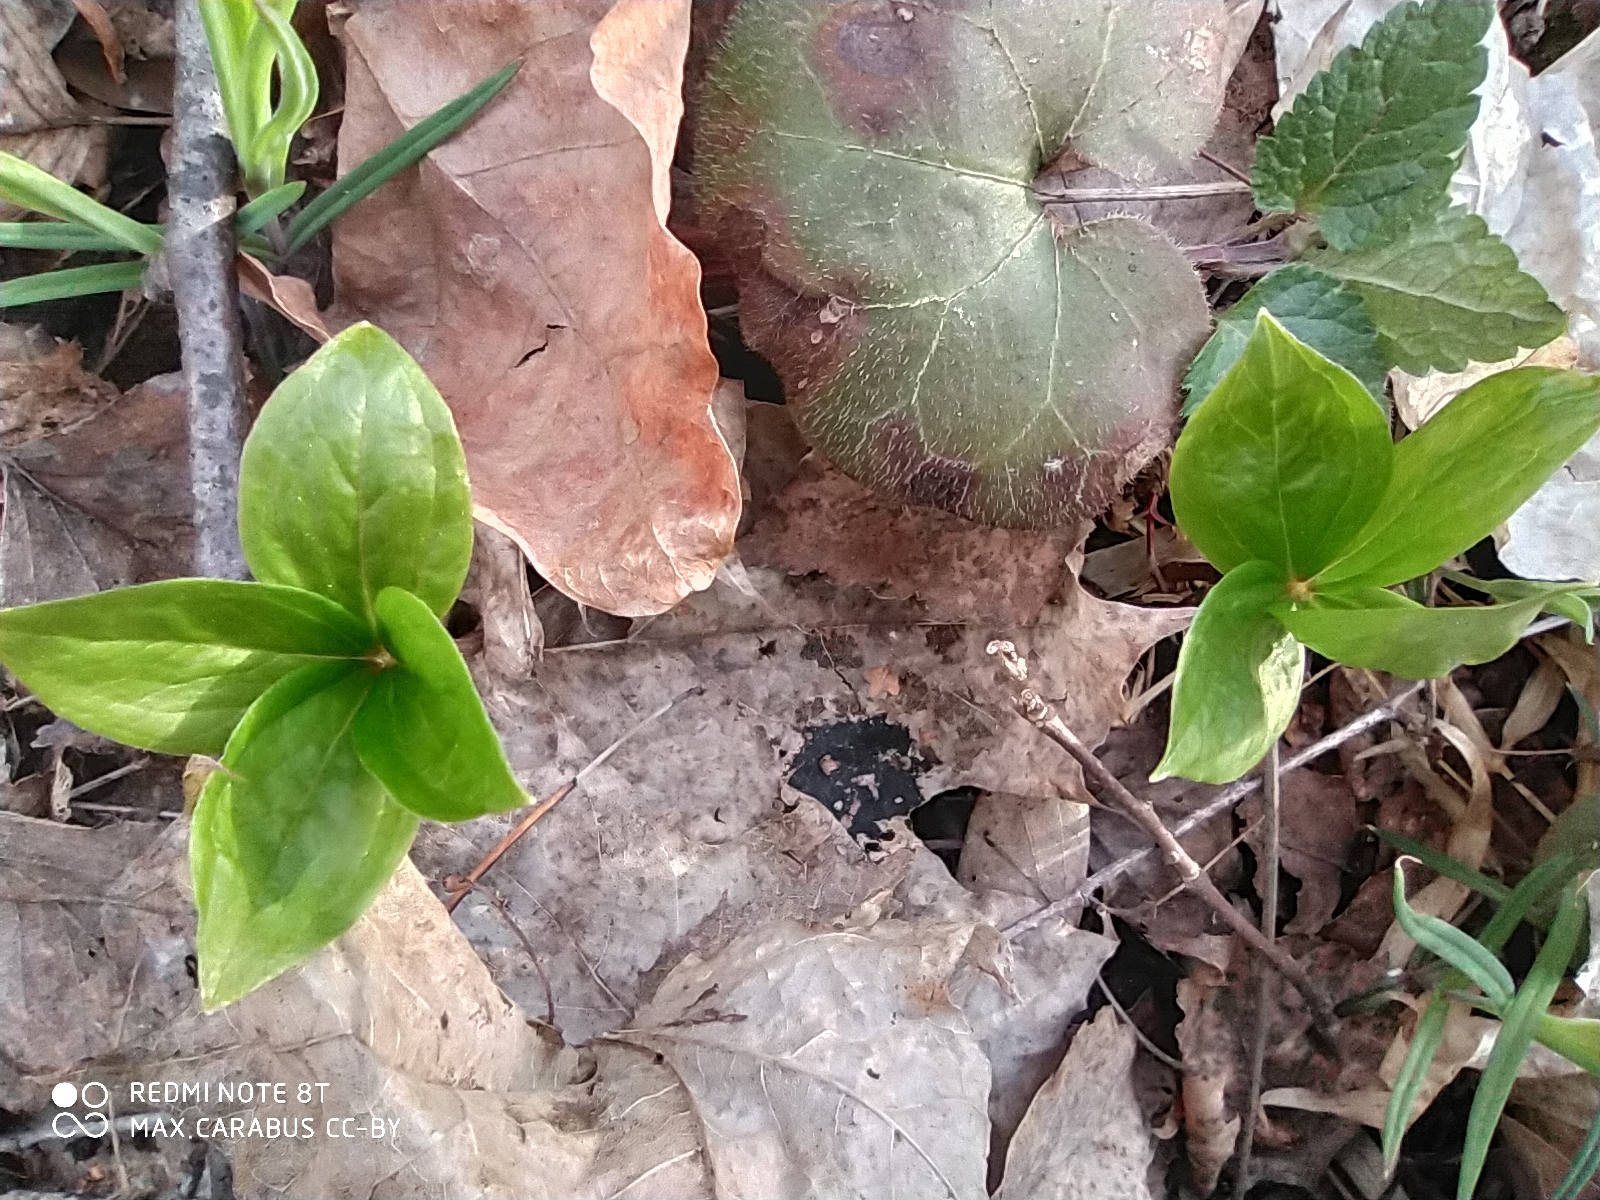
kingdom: Plantae
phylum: Tracheophyta
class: Liliopsida
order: Liliales
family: Melanthiaceae
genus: Paris
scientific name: Paris quadrifolia
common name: Herb-paris
